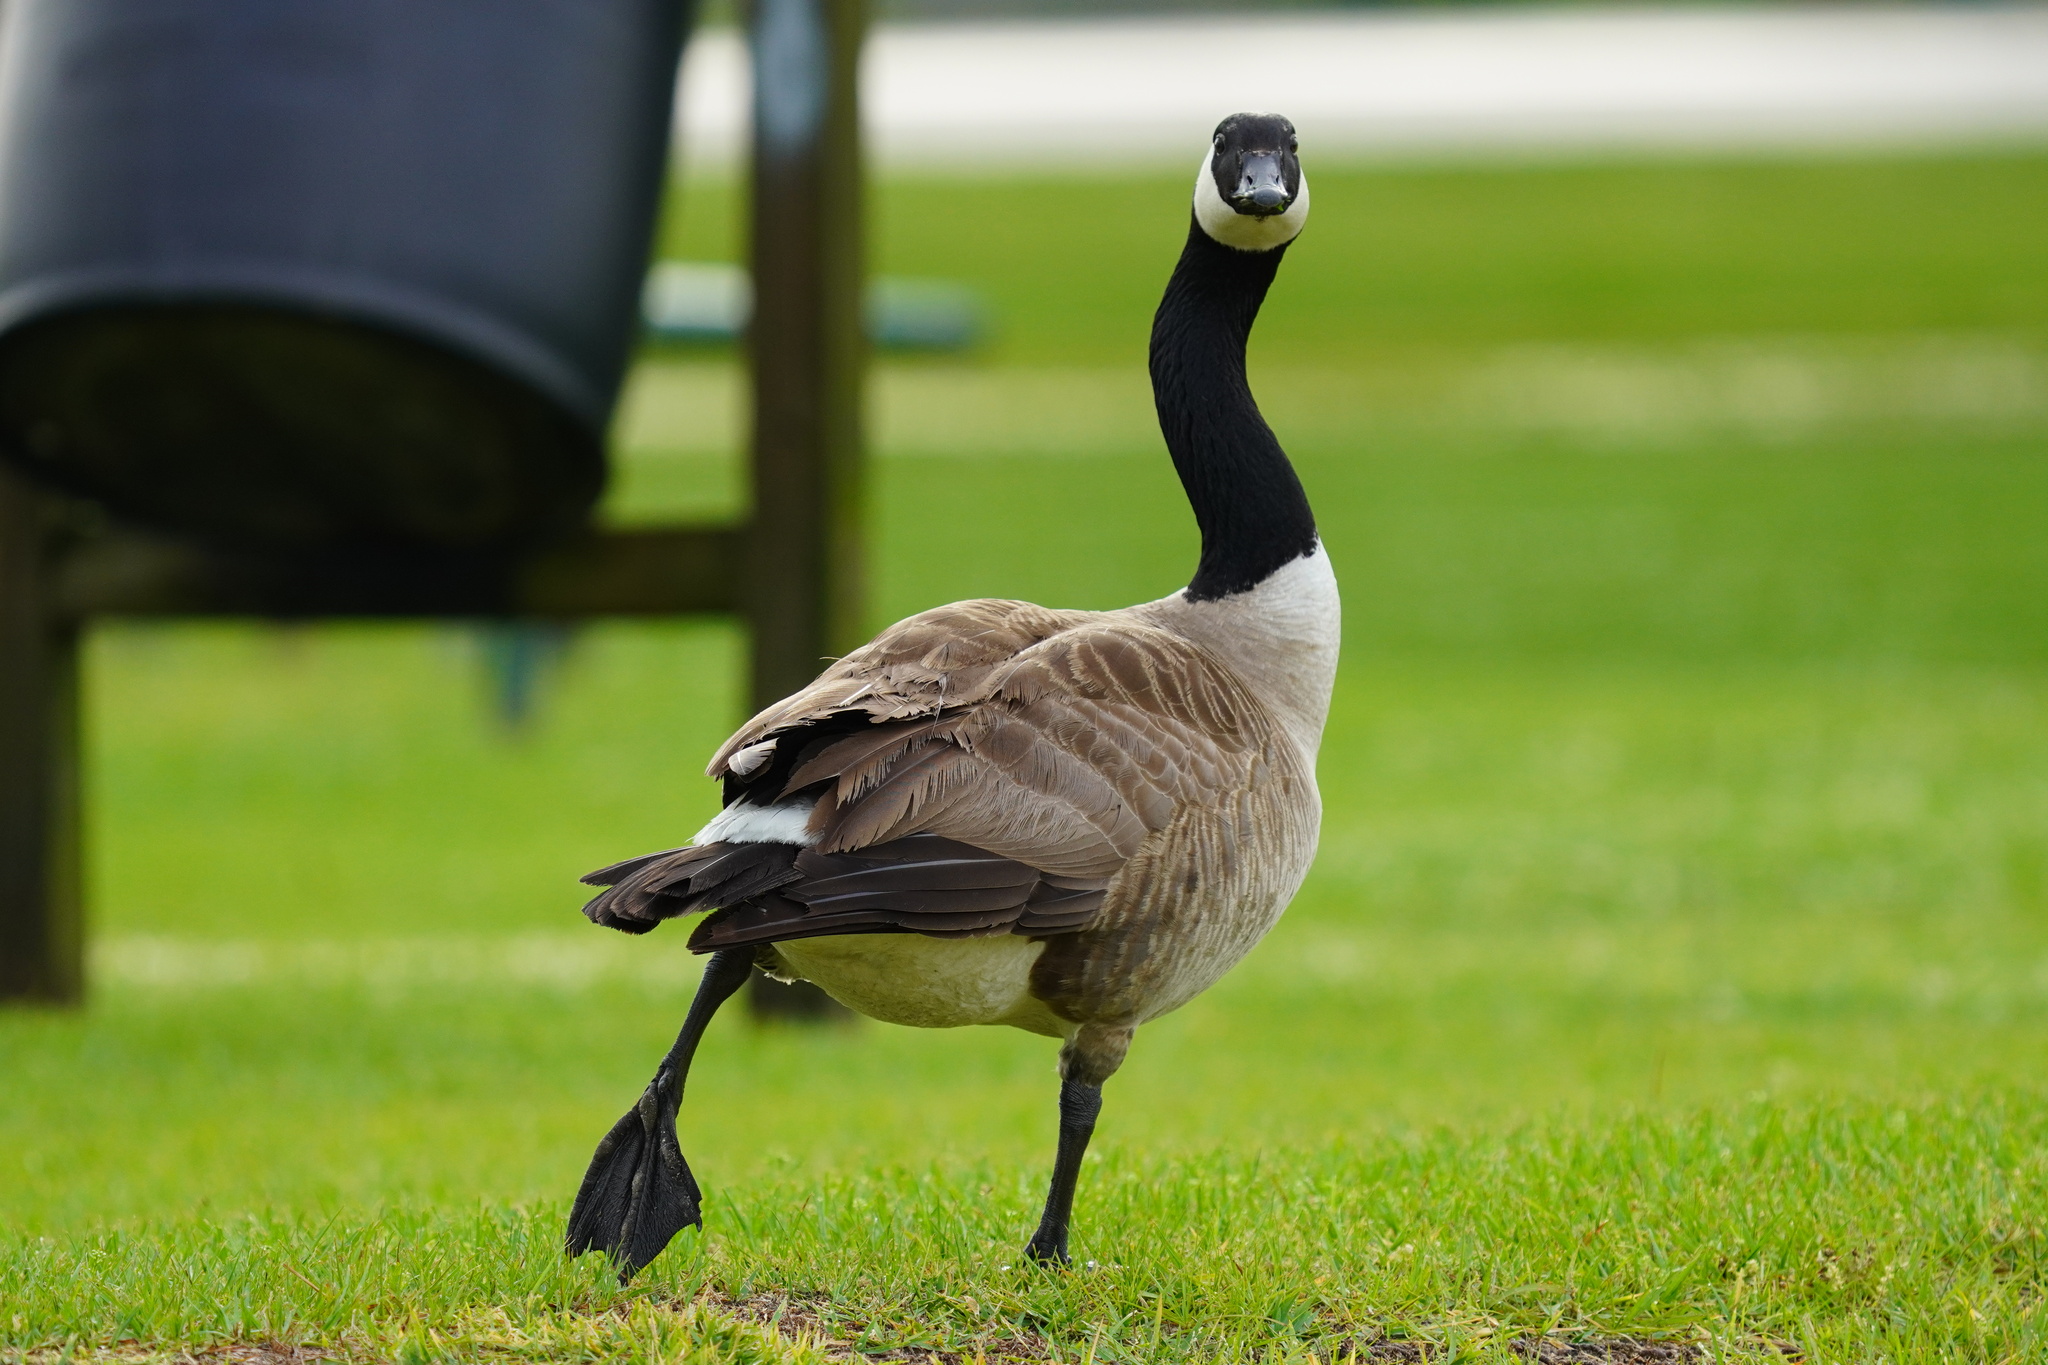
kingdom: Animalia
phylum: Chordata
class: Aves
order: Anseriformes
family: Anatidae
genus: Branta
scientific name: Branta canadensis
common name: Canada goose
